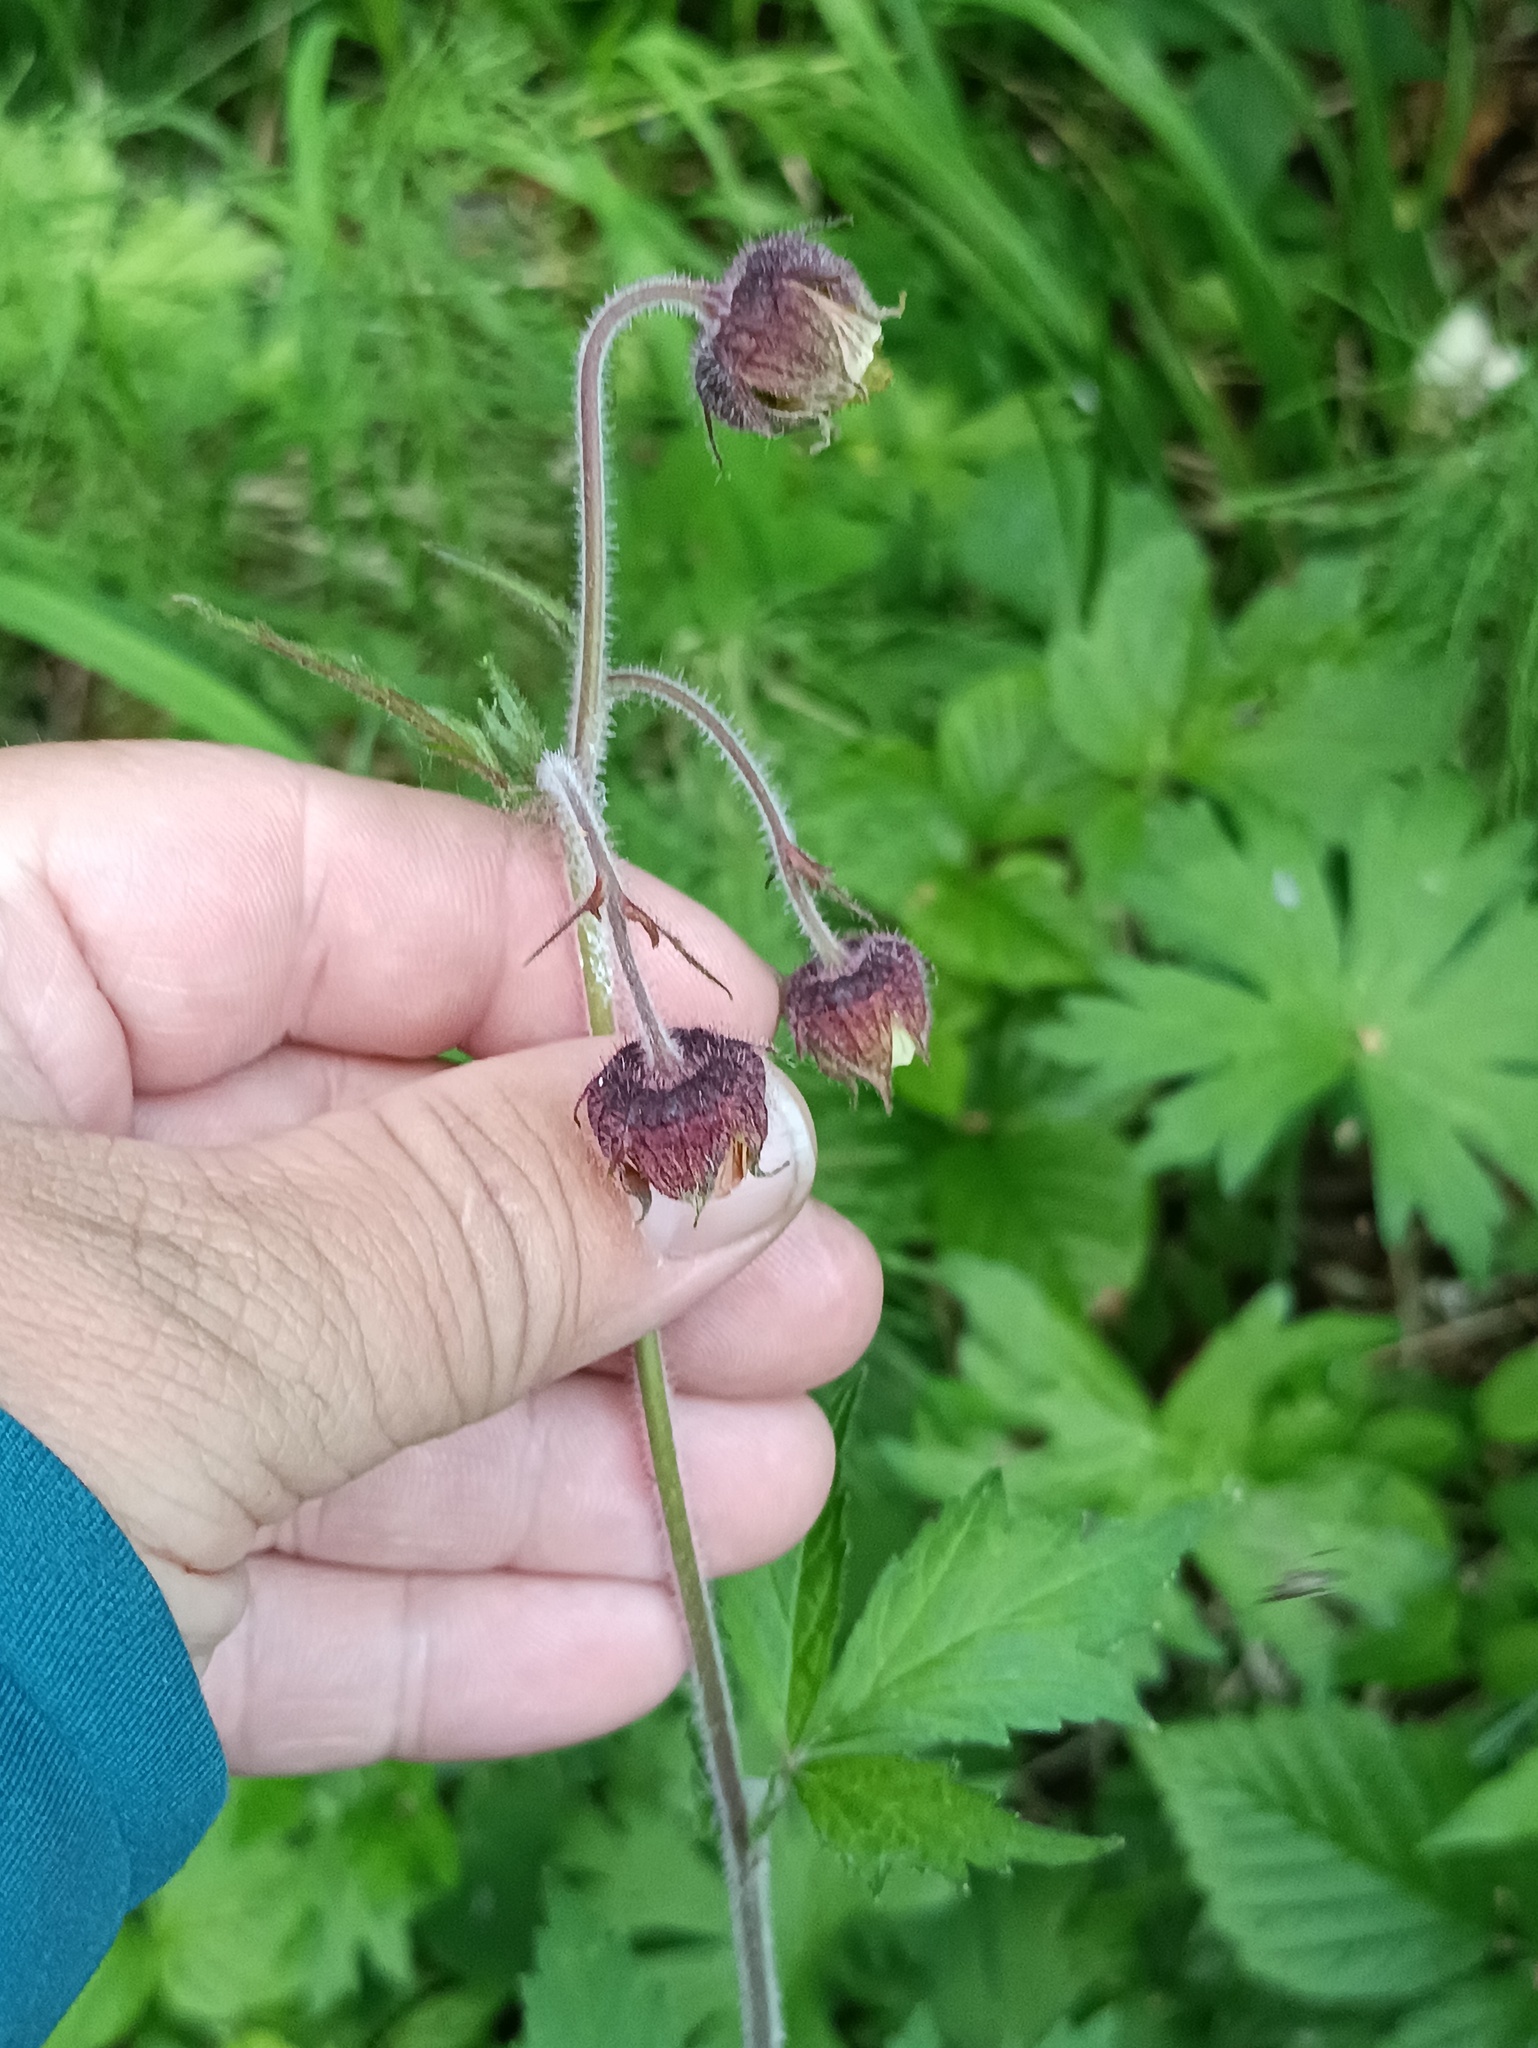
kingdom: Plantae
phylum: Tracheophyta
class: Magnoliopsida
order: Rosales
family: Rosaceae
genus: Geum
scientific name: Geum rivale
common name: Water avens
